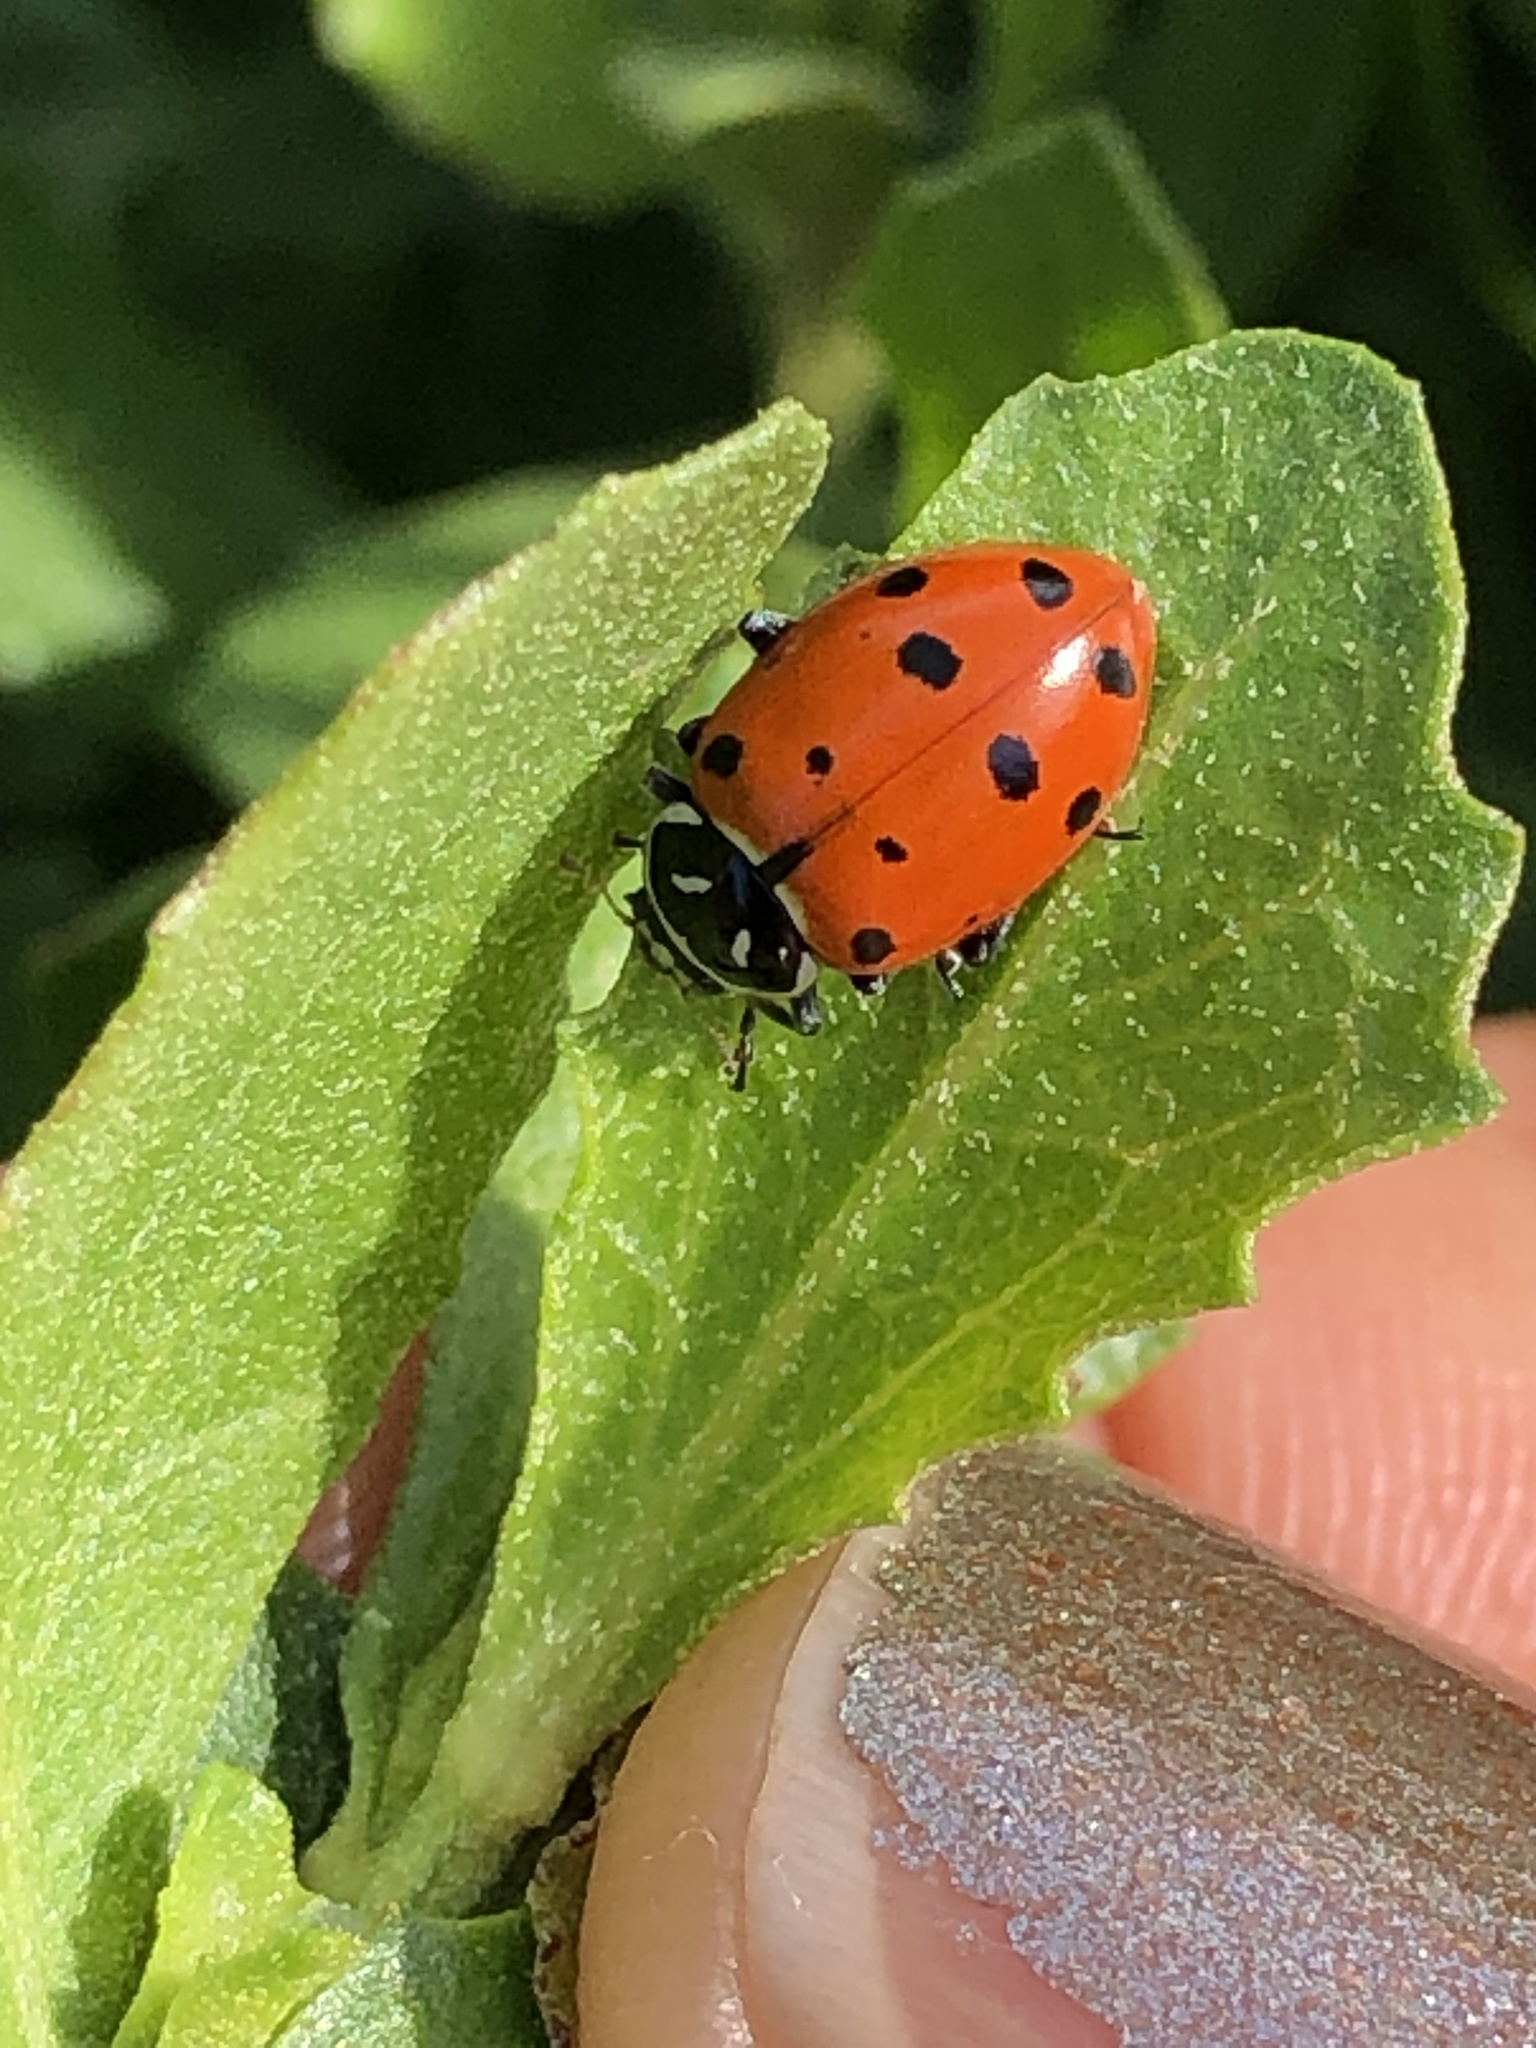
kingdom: Animalia
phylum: Arthropoda
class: Insecta
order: Coleoptera
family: Coccinellidae
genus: Hippodamia
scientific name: Hippodamia convergens
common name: Convergent lady beetle
